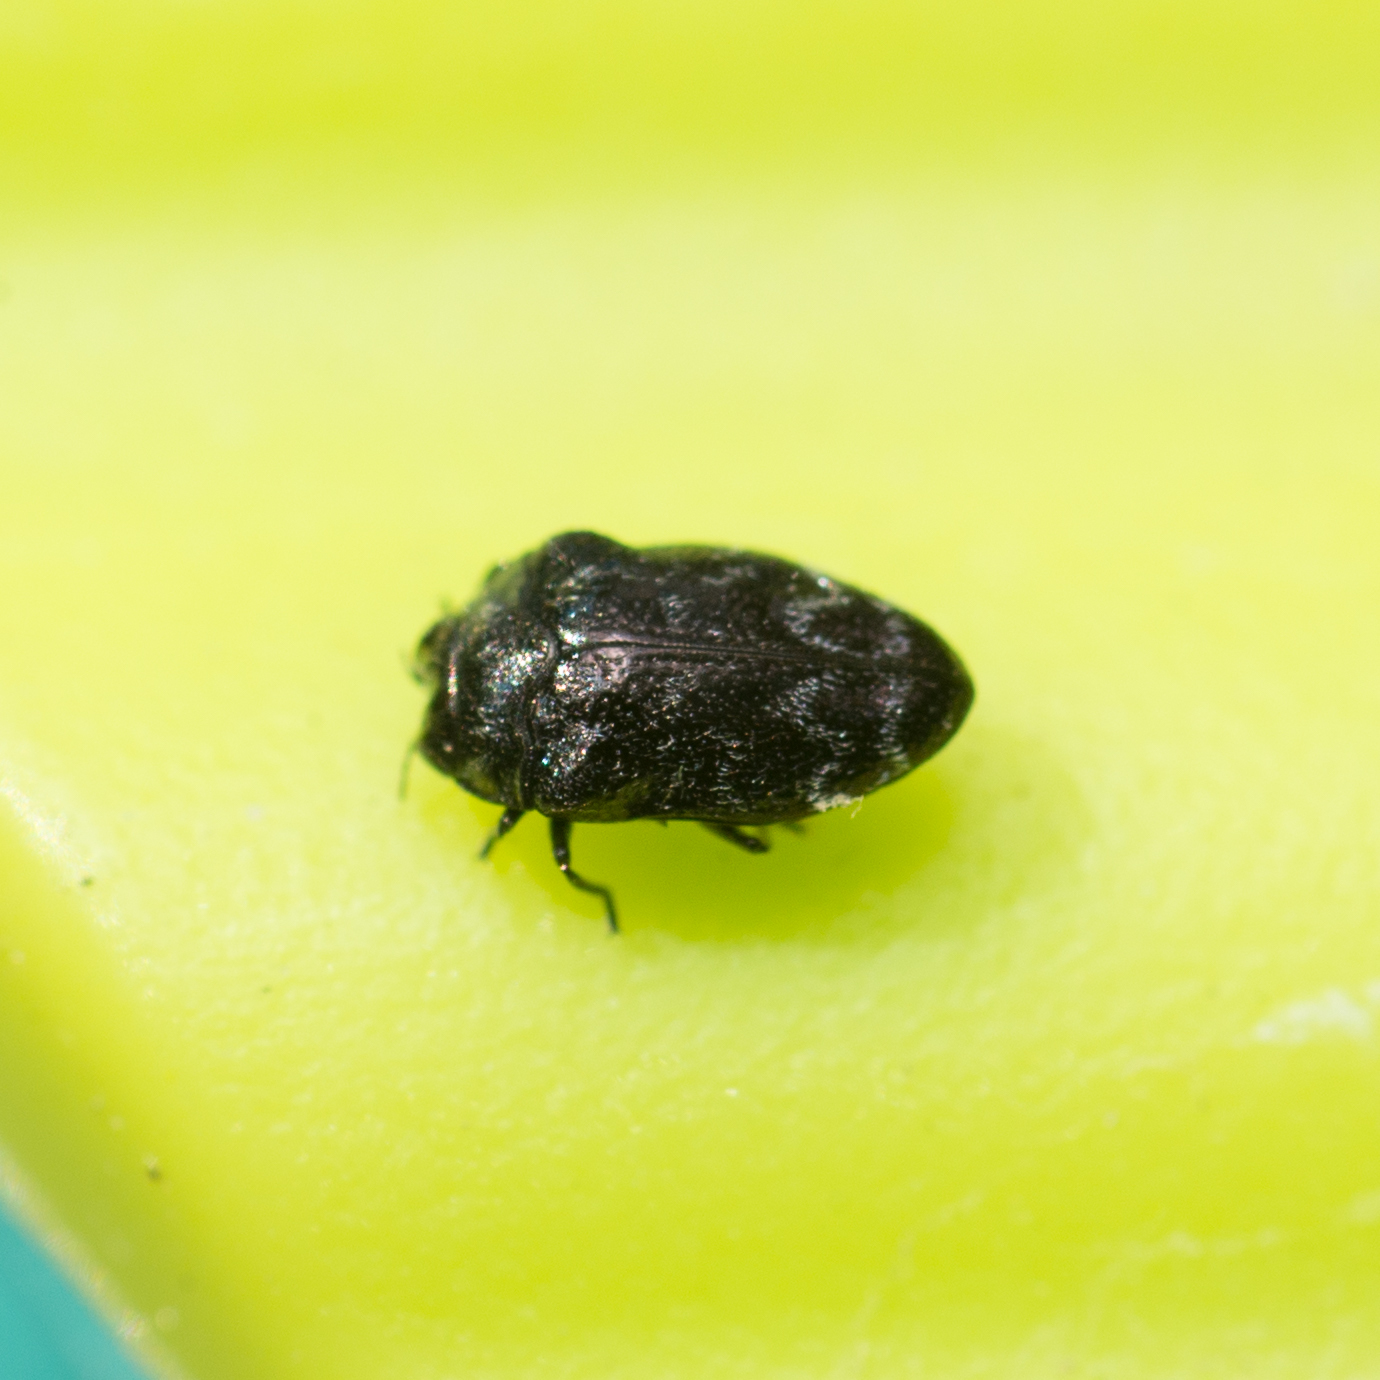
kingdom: Animalia
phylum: Arthropoda
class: Insecta
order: Coleoptera
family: Buprestidae
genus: Trachys
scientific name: Trachys minutus
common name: Metallic wood-boring beetle
